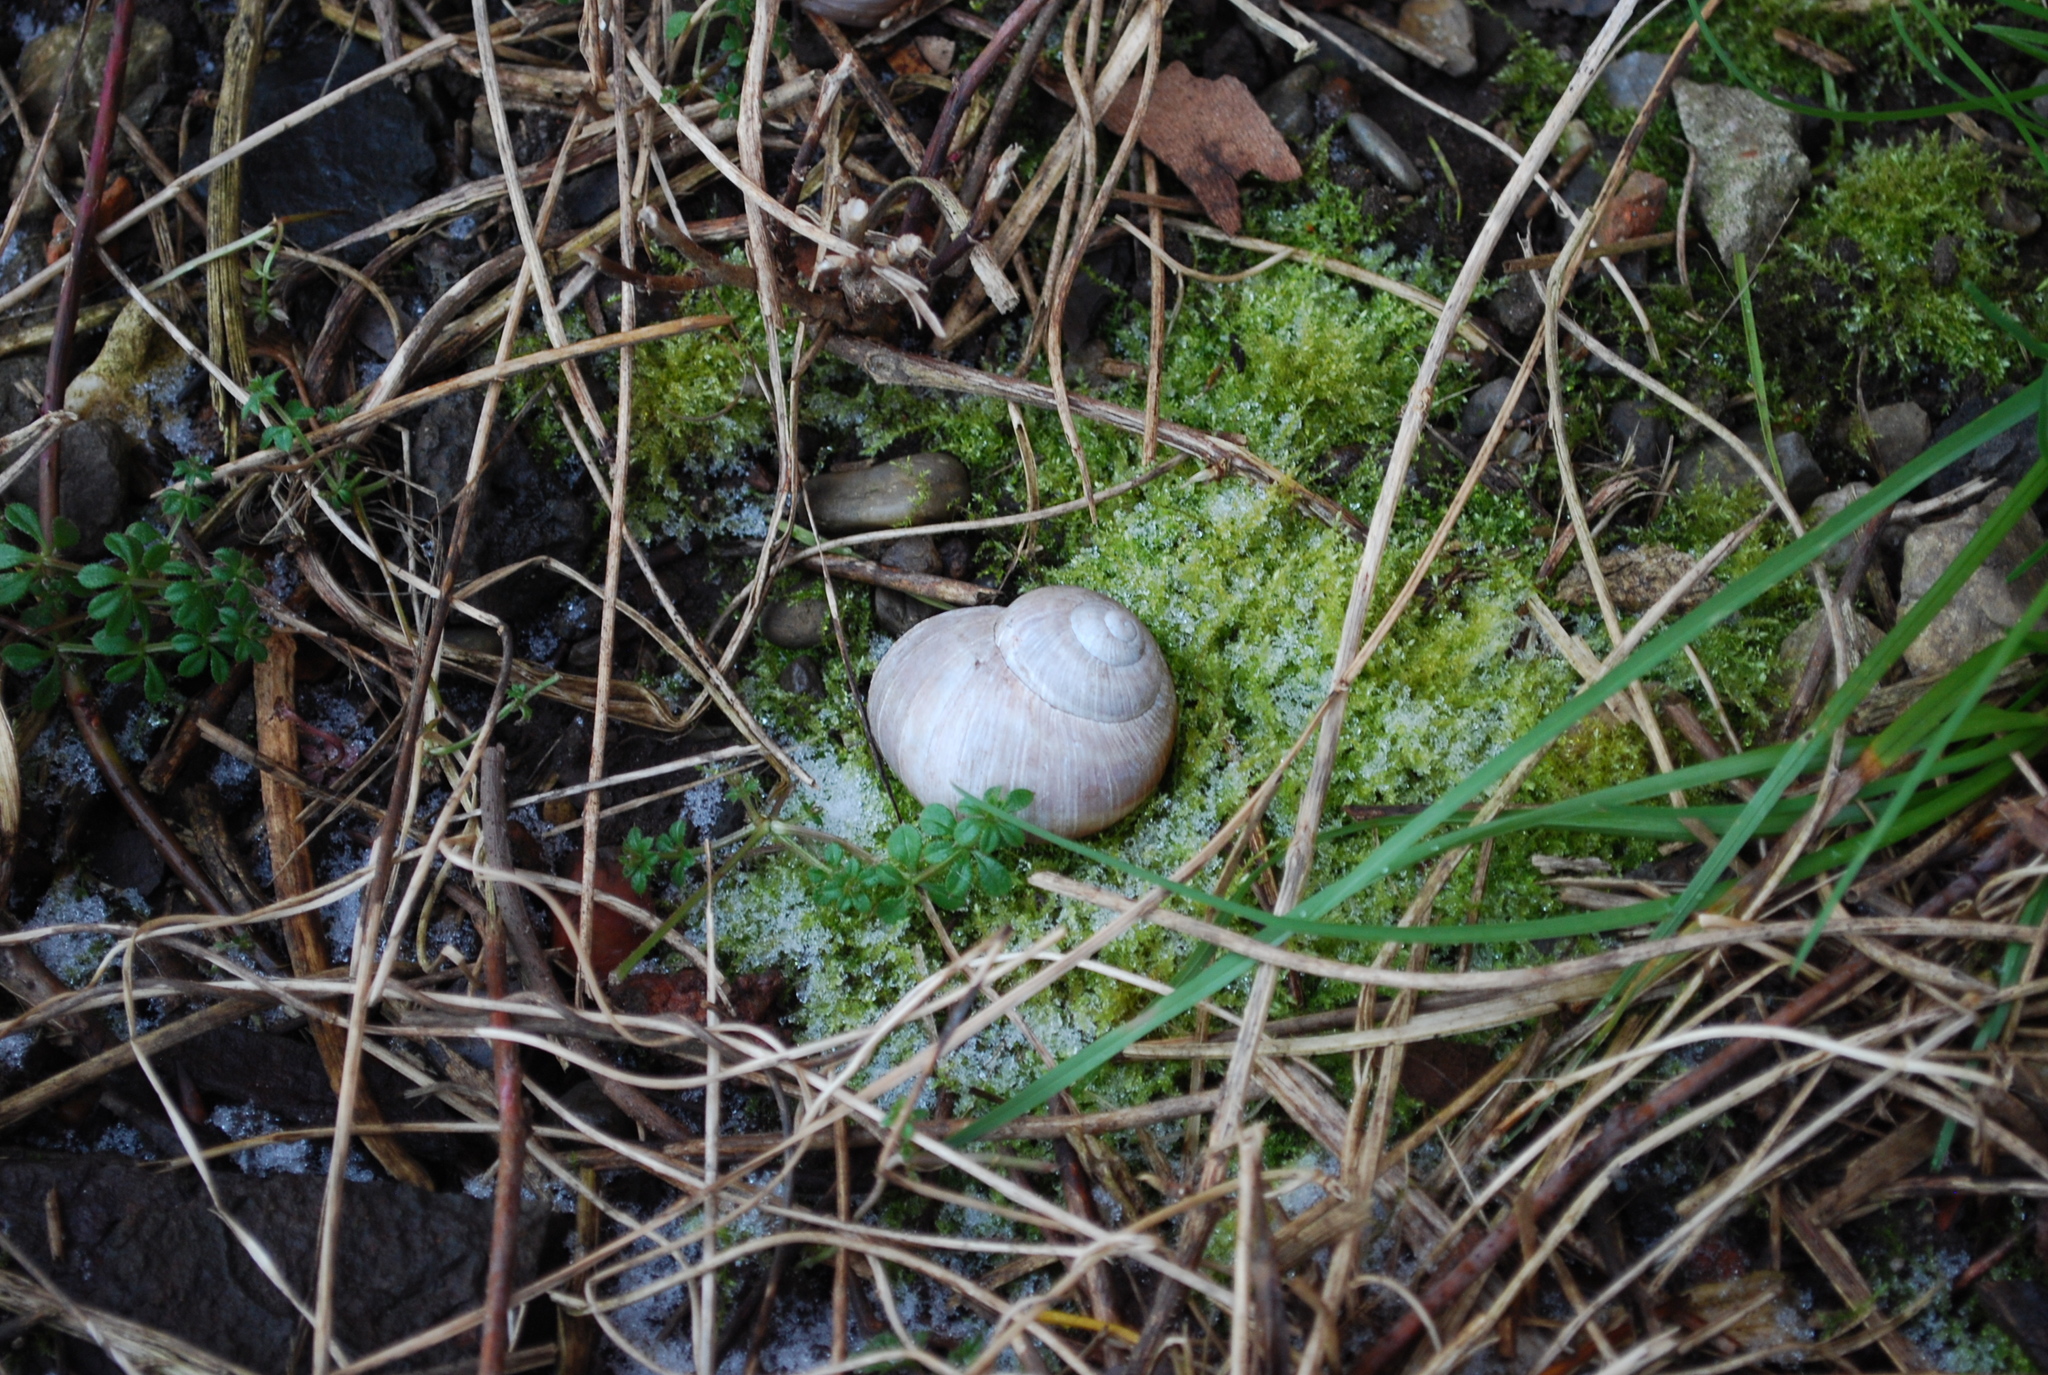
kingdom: Animalia
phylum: Mollusca
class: Gastropoda
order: Stylommatophora
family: Helicidae
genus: Helix
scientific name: Helix pomatia
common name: Roman snail
